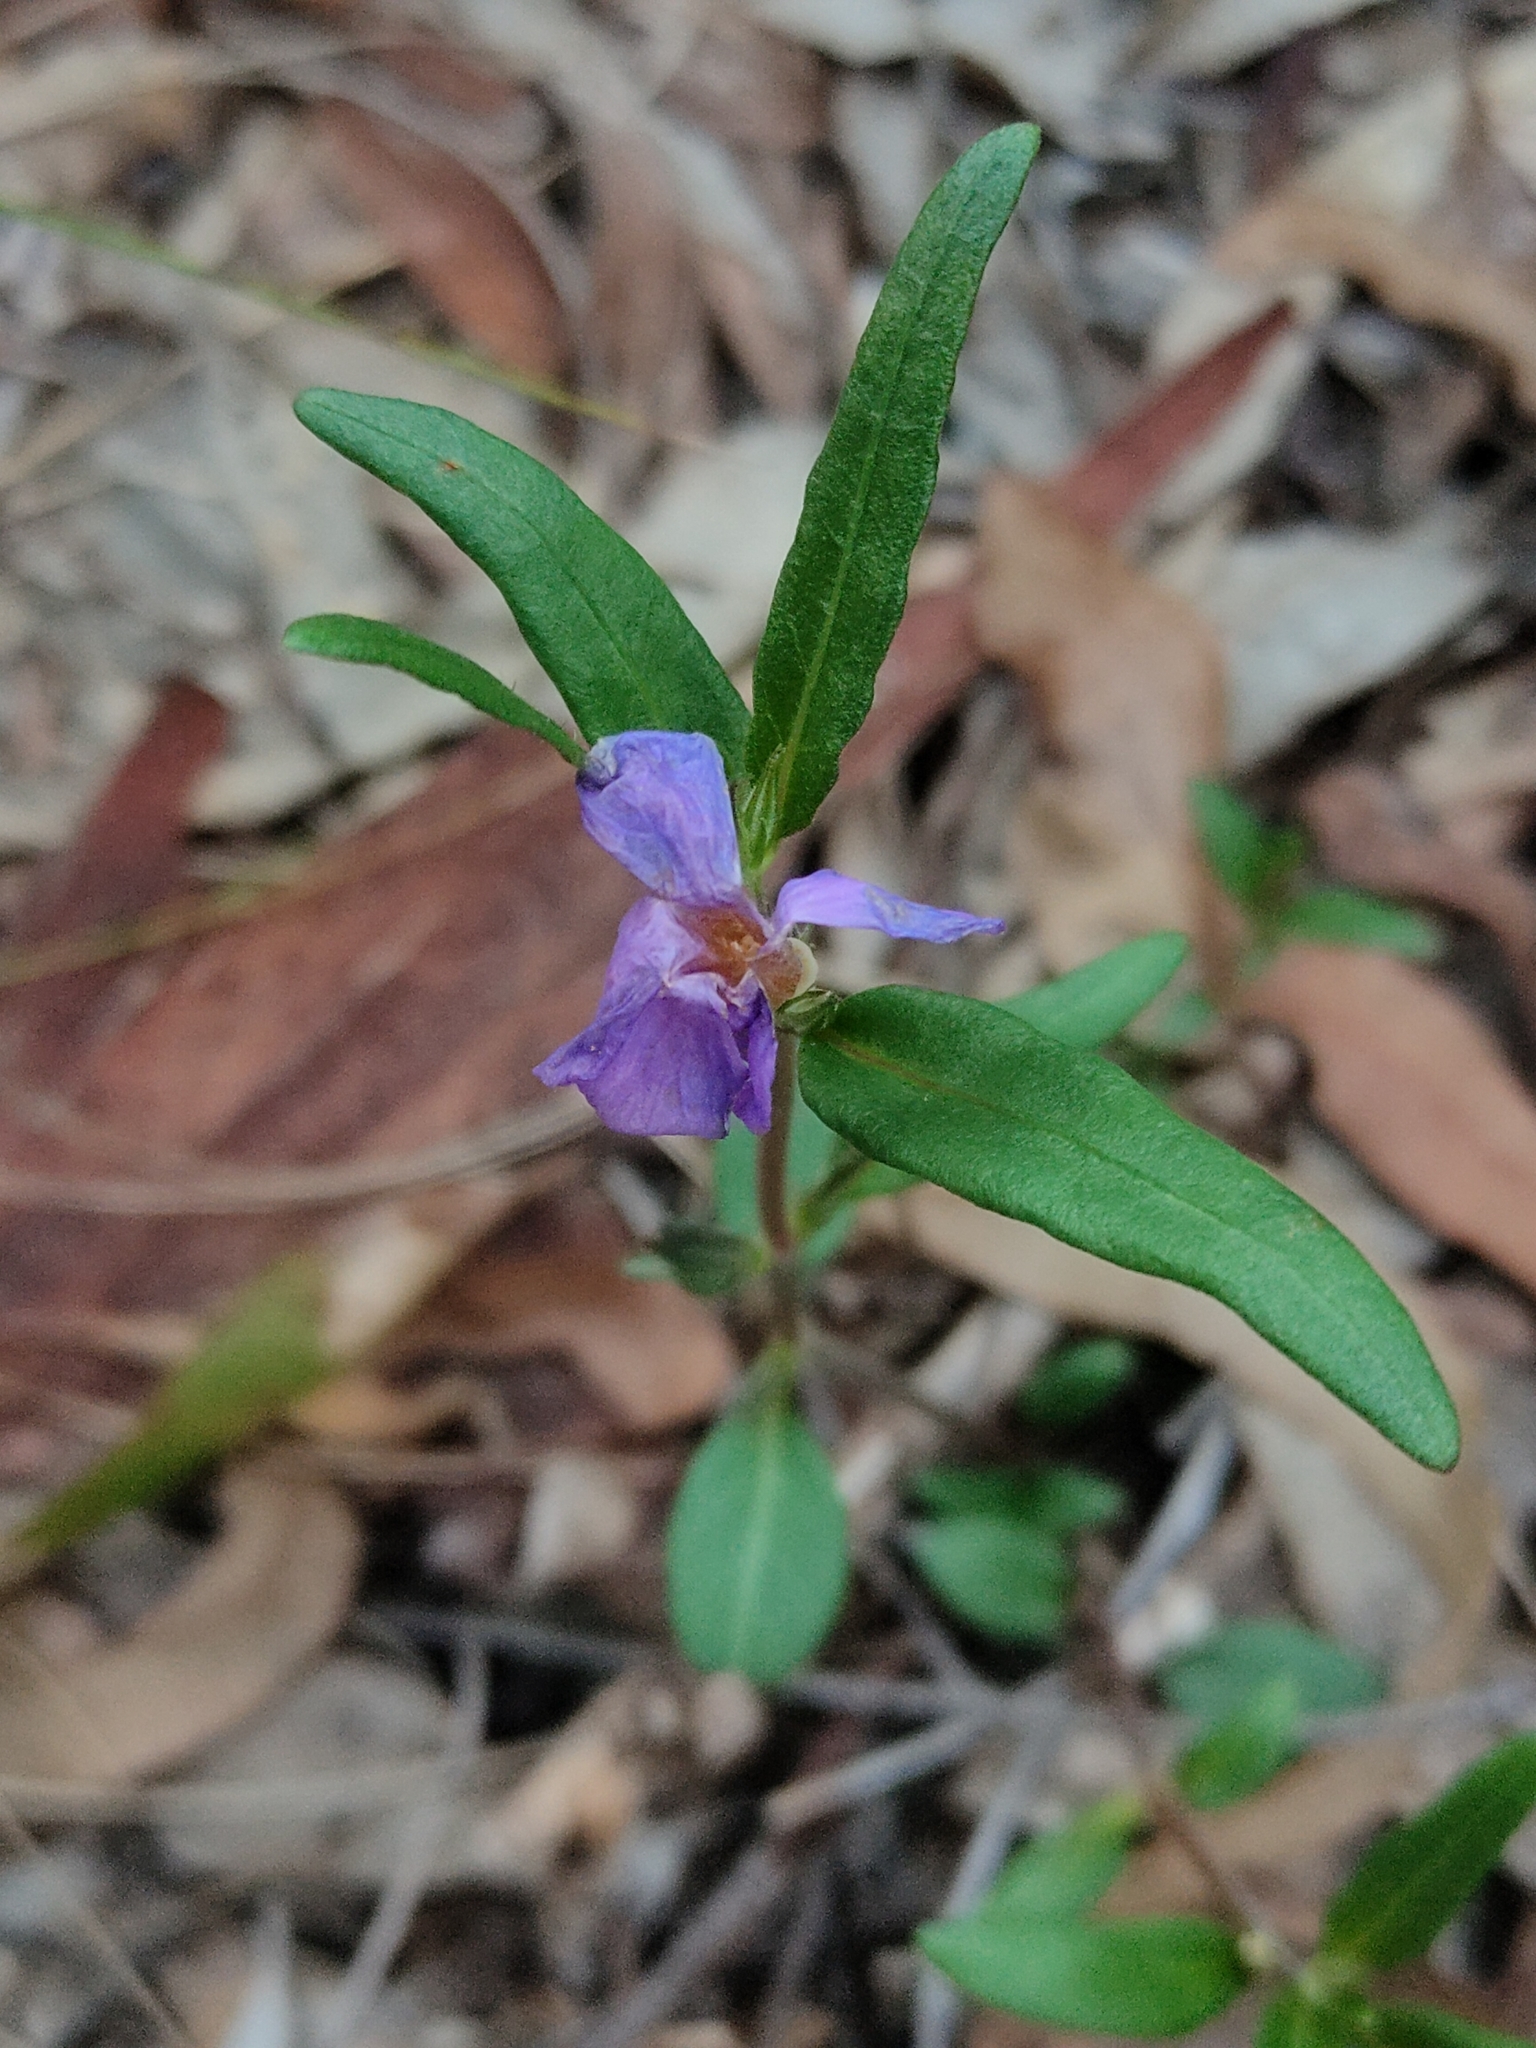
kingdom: Plantae
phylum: Tracheophyta
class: Magnoliopsida
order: Lamiales
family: Acanthaceae
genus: Brunoniella
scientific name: Brunoniella australis
